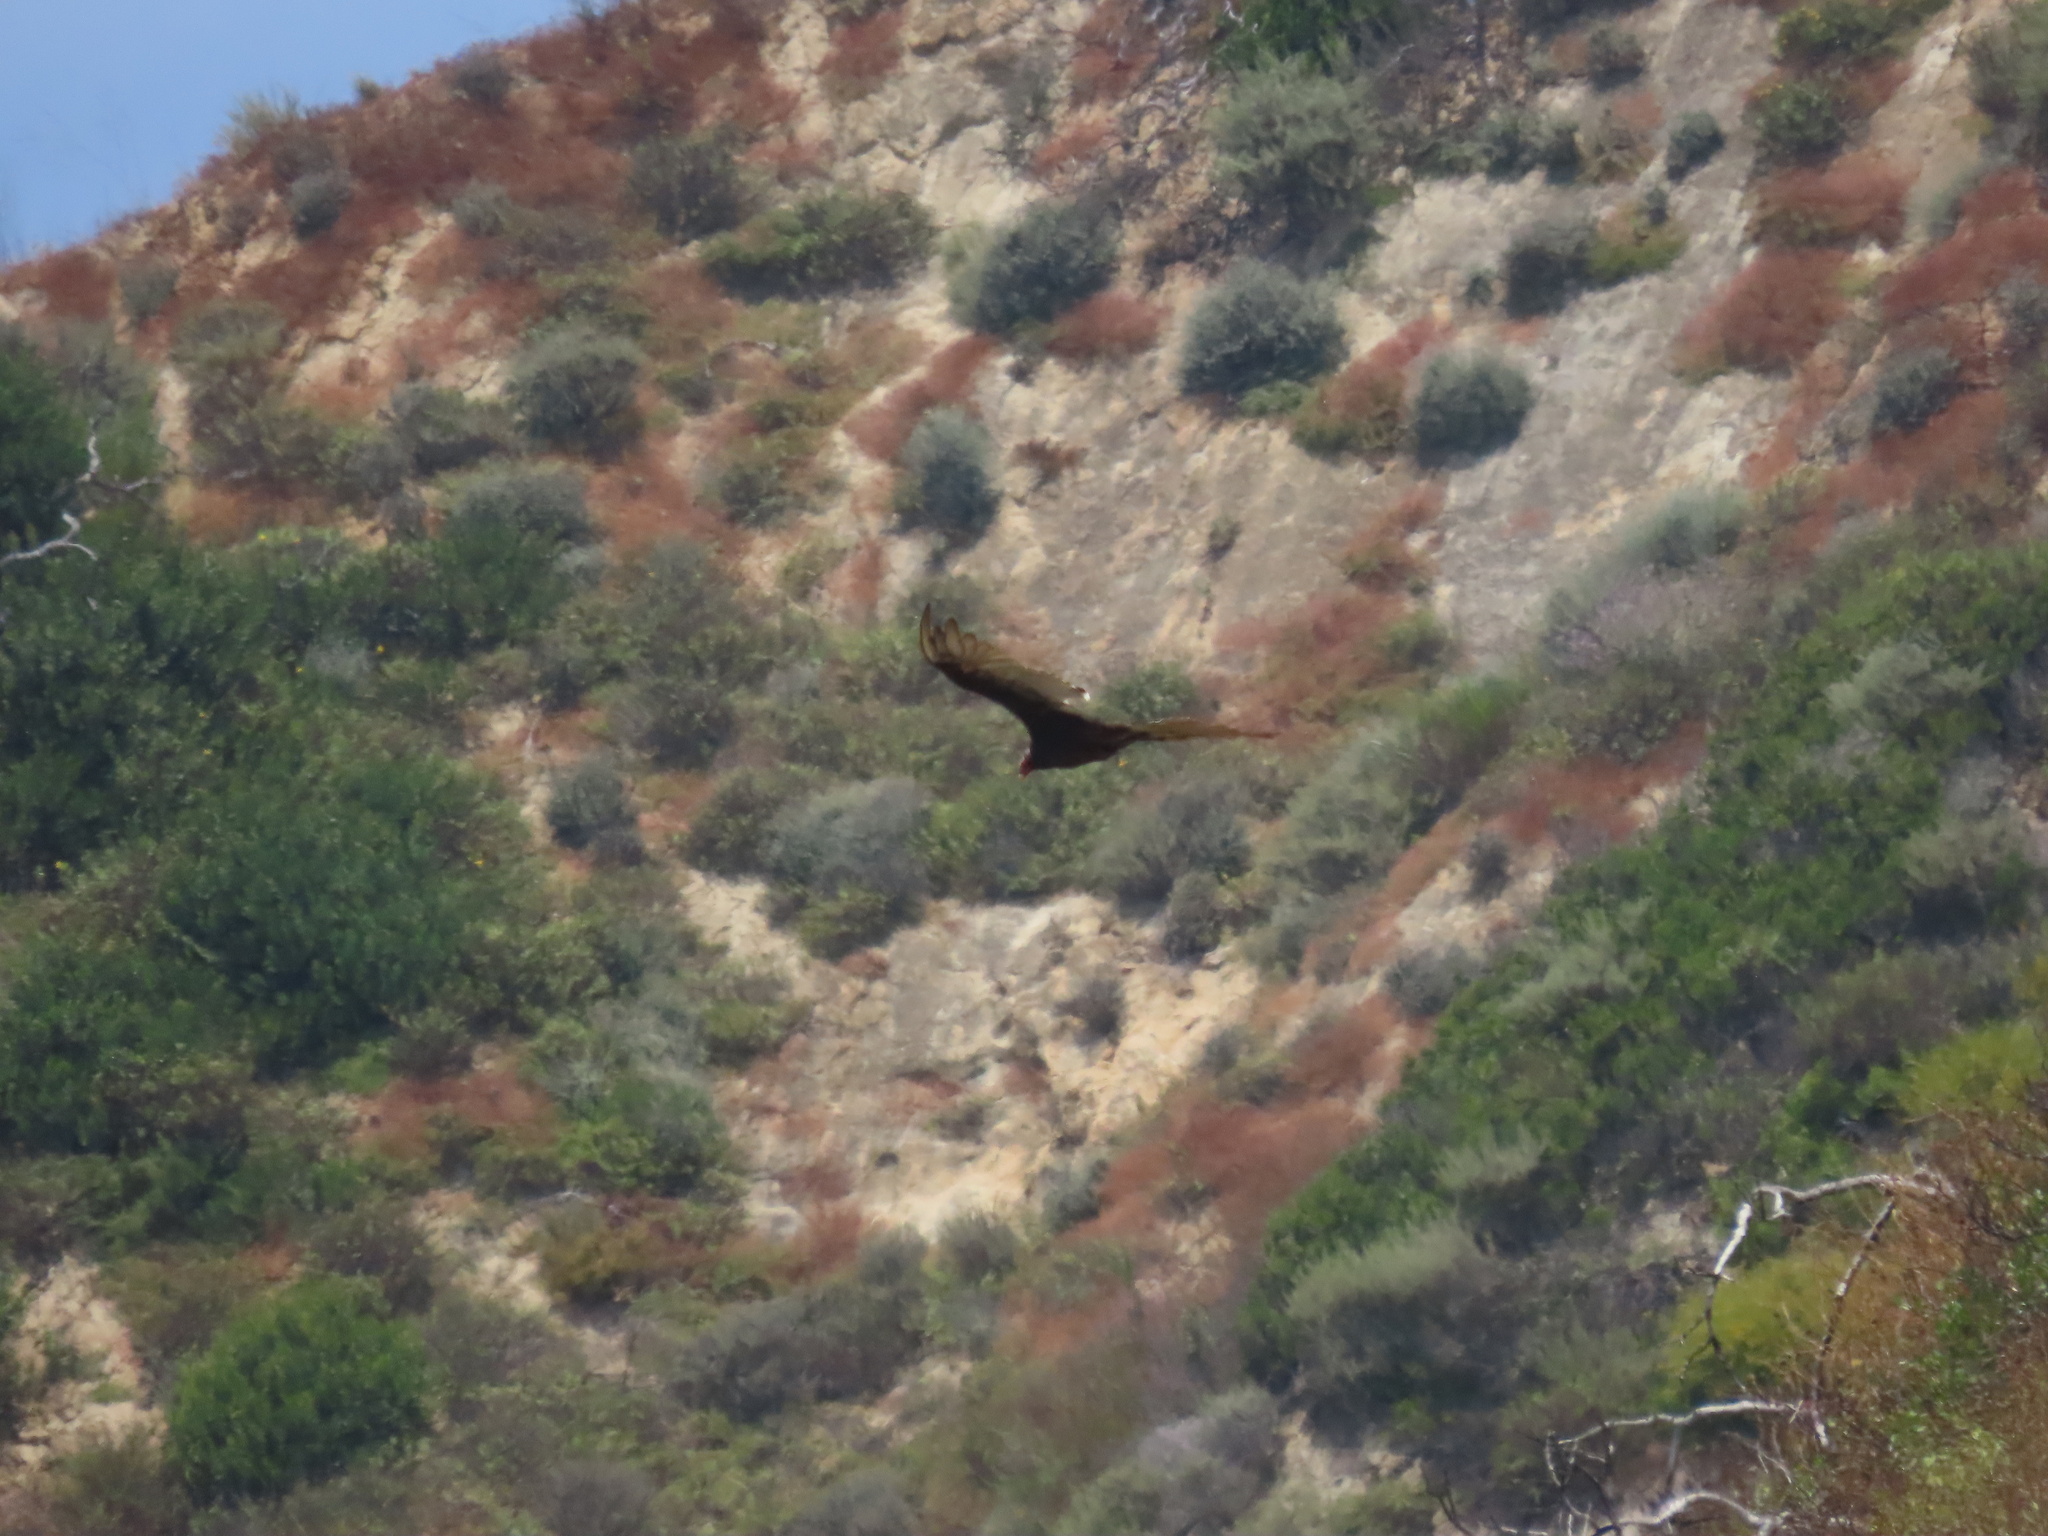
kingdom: Animalia
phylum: Chordata
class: Aves
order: Accipitriformes
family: Cathartidae
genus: Cathartes
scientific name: Cathartes aura
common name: Turkey vulture
